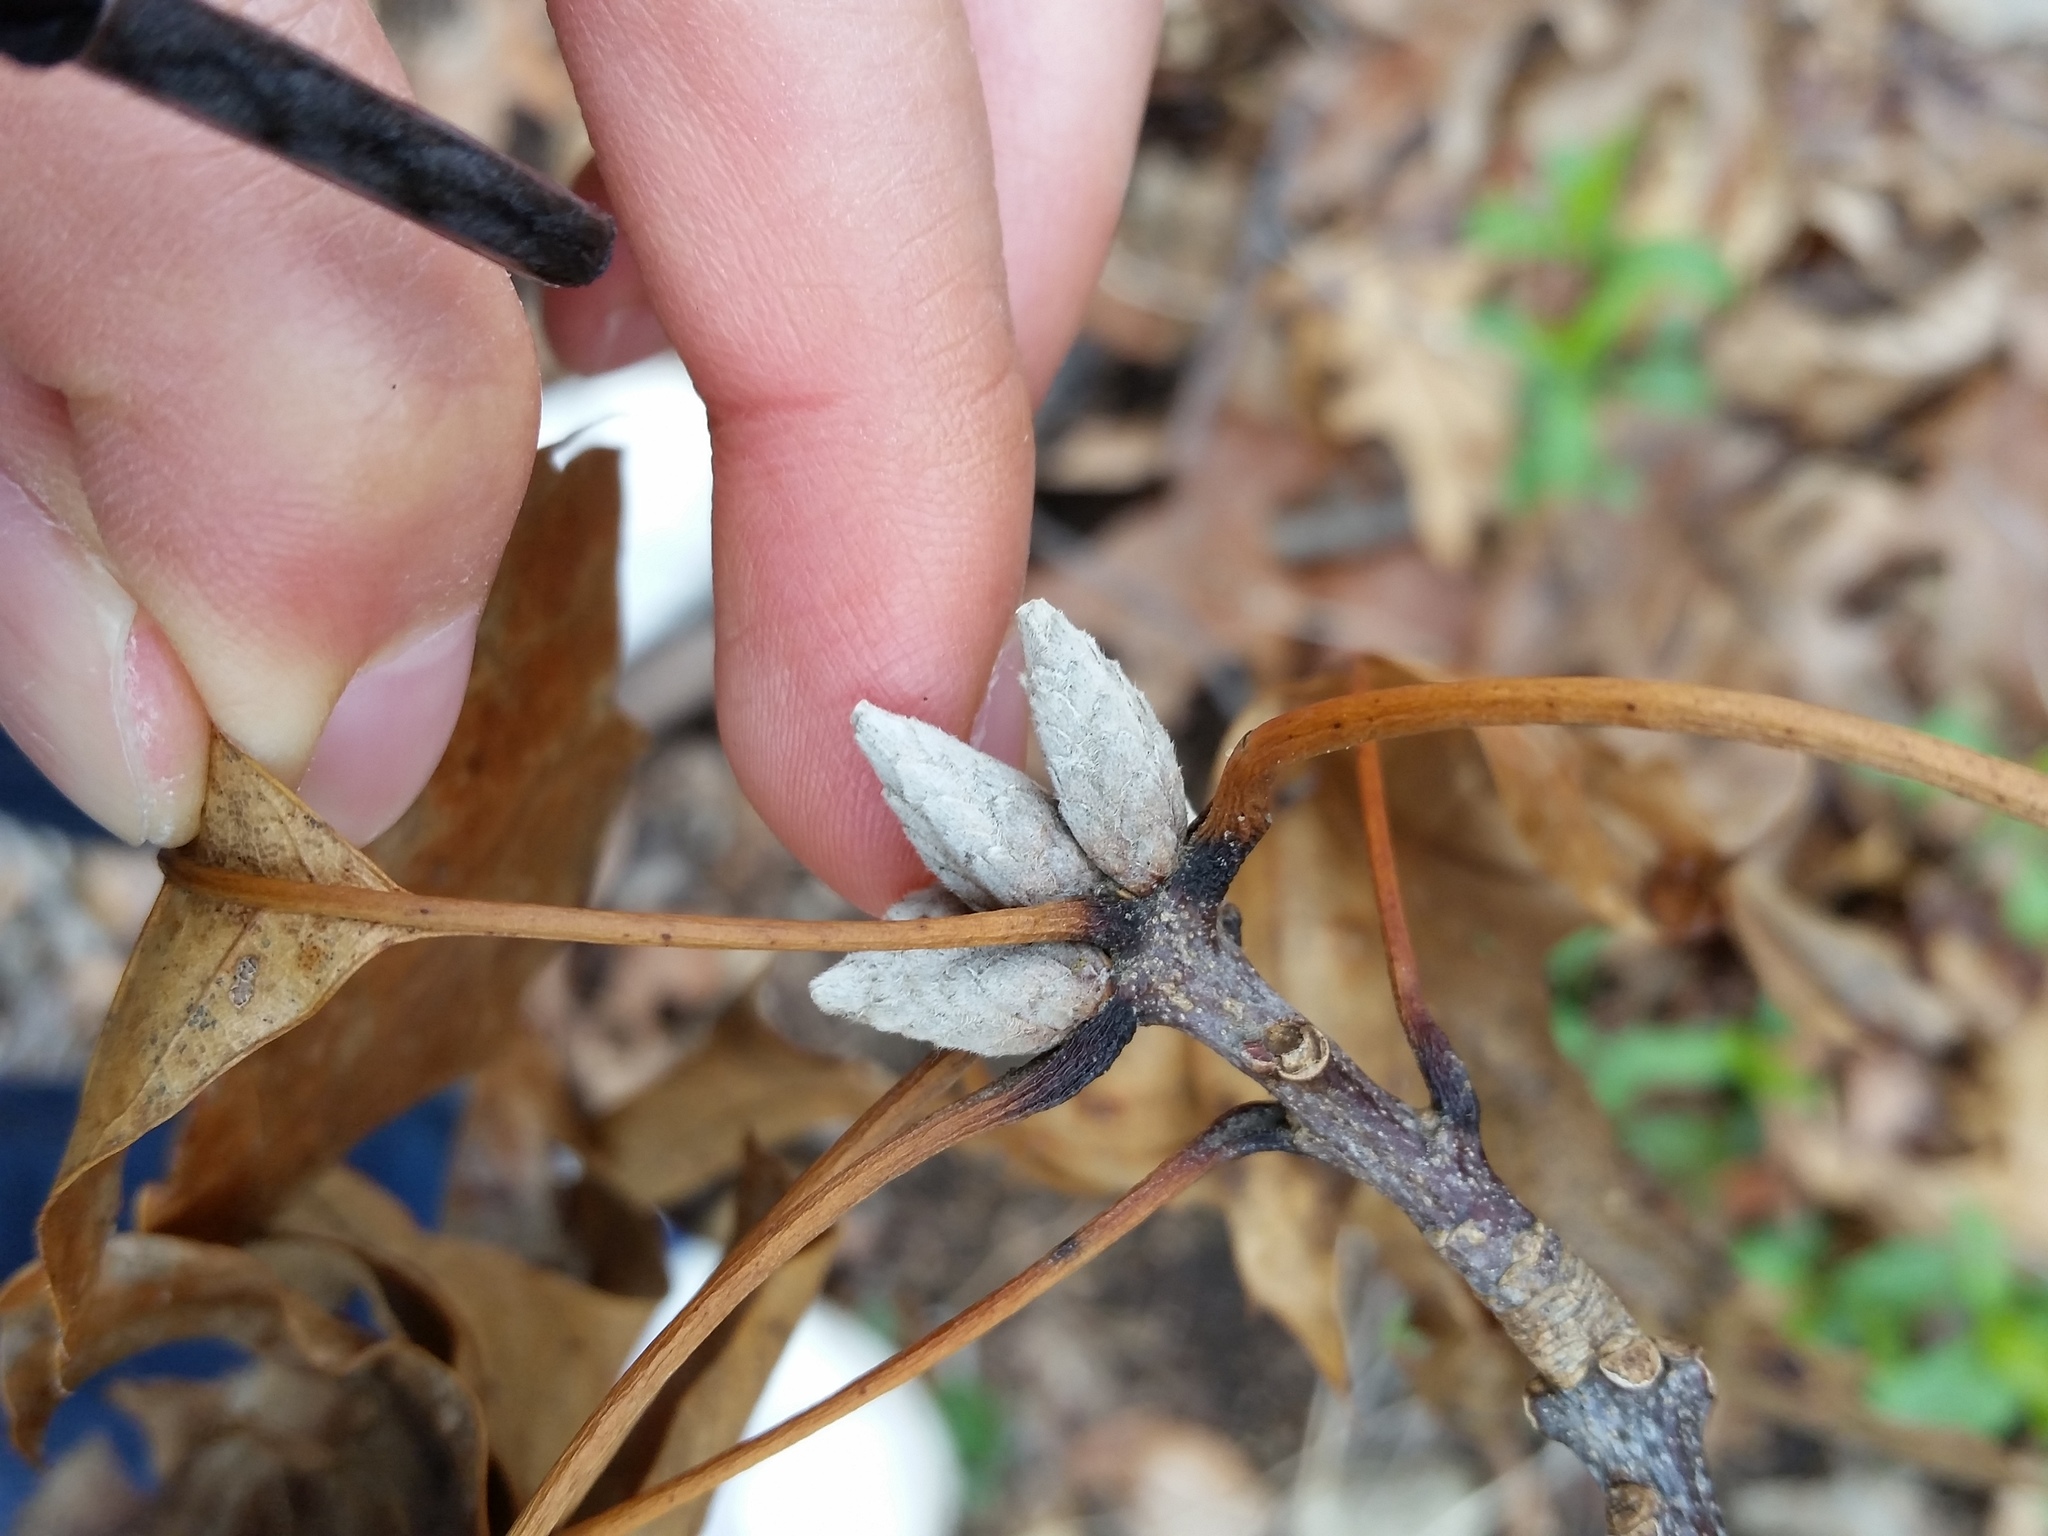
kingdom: Plantae
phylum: Tracheophyta
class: Magnoliopsida
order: Fagales
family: Fagaceae
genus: Quercus
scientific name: Quercus velutina
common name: Black oak
